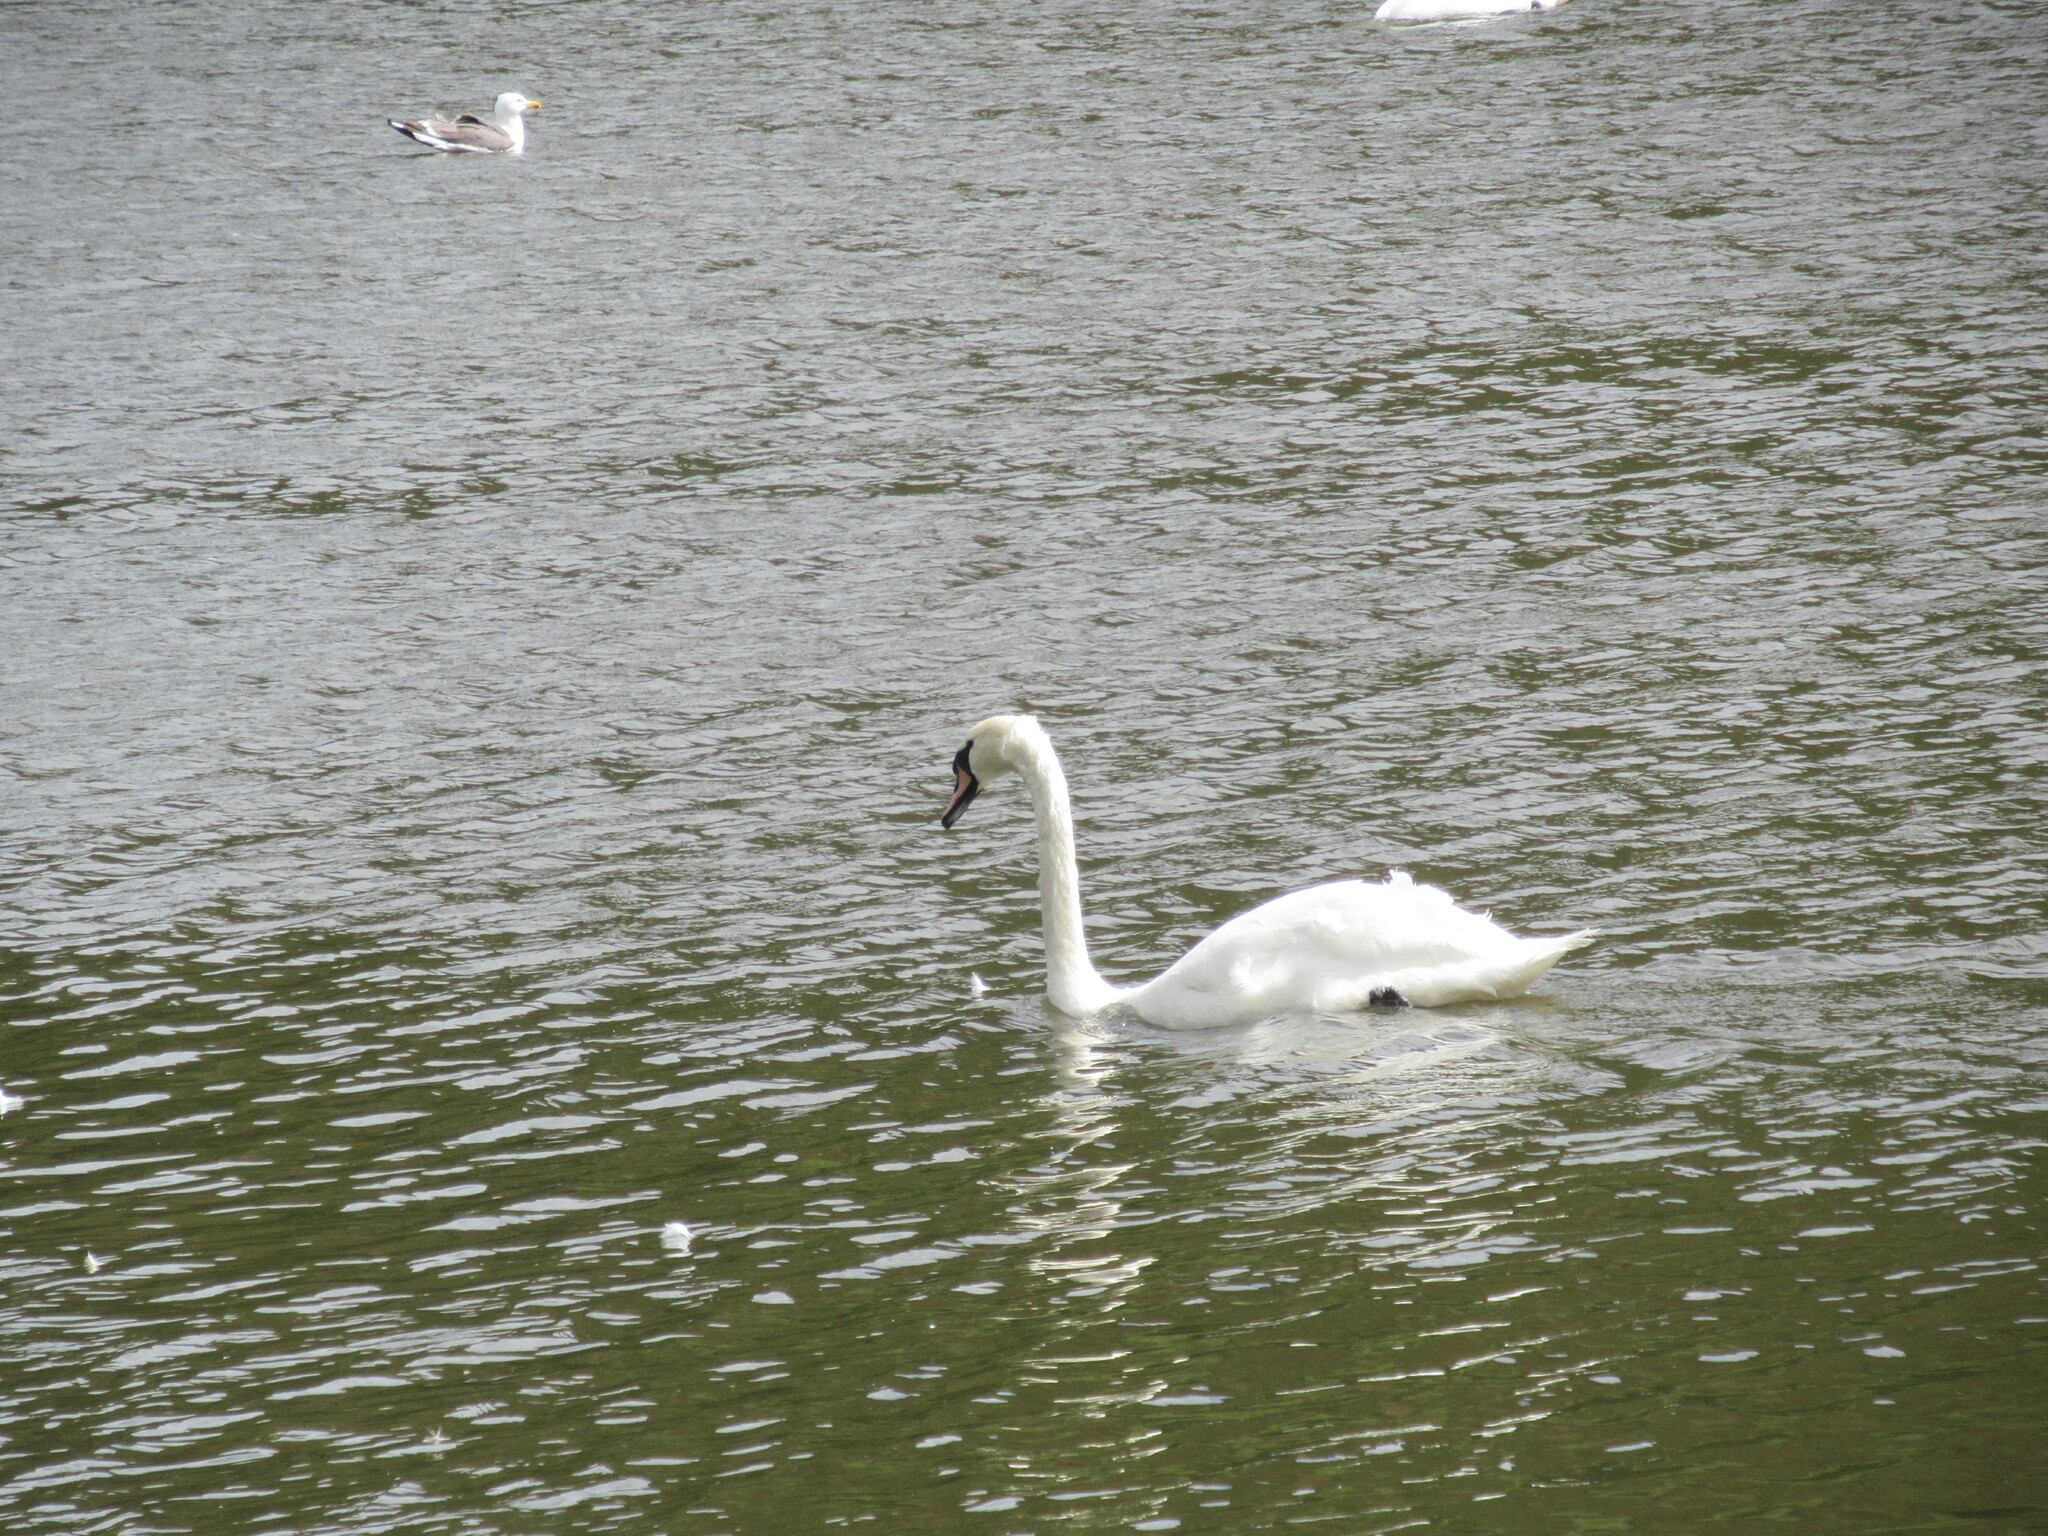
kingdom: Animalia
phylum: Chordata
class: Aves
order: Anseriformes
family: Anatidae
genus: Cygnus
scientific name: Cygnus olor
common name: Mute swan
